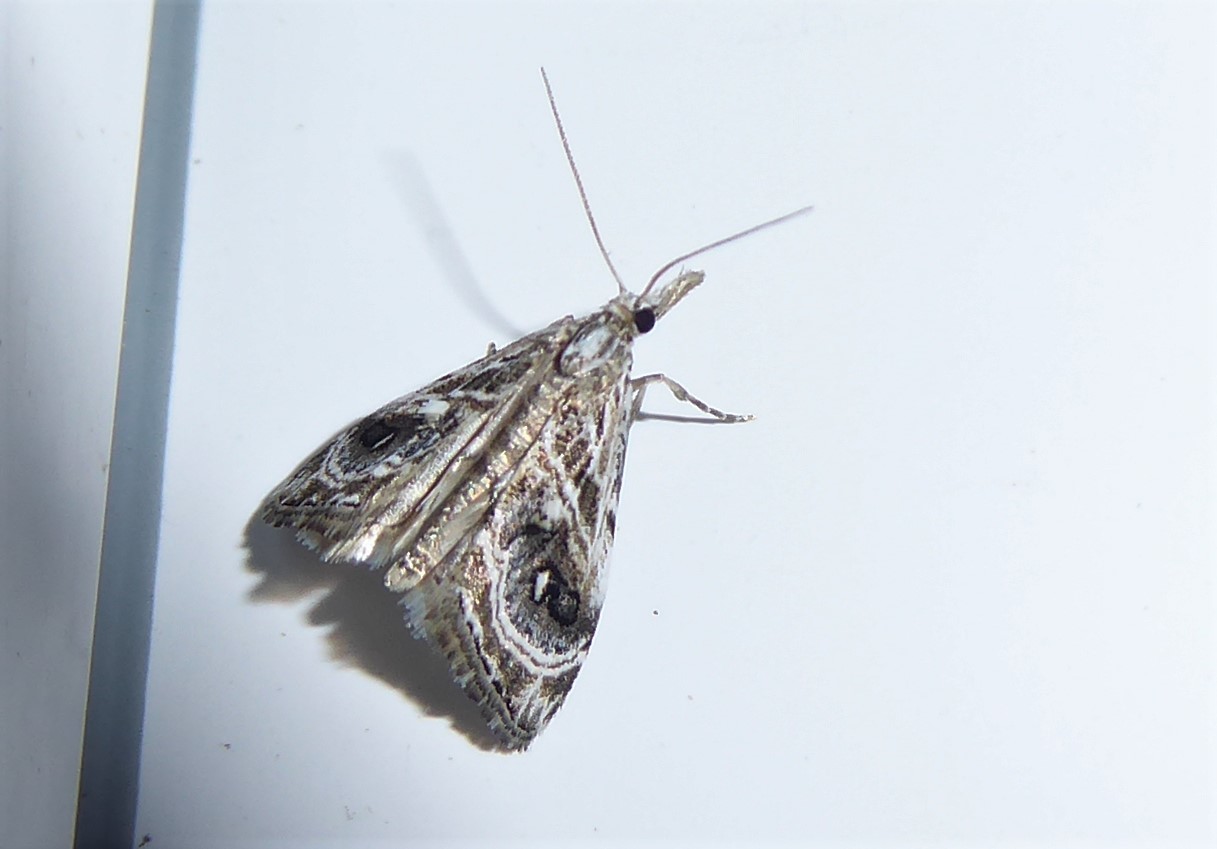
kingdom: Animalia
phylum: Arthropoda
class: Insecta
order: Lepidoptera
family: Crambidae
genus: Gadira
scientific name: Gadira acerella
